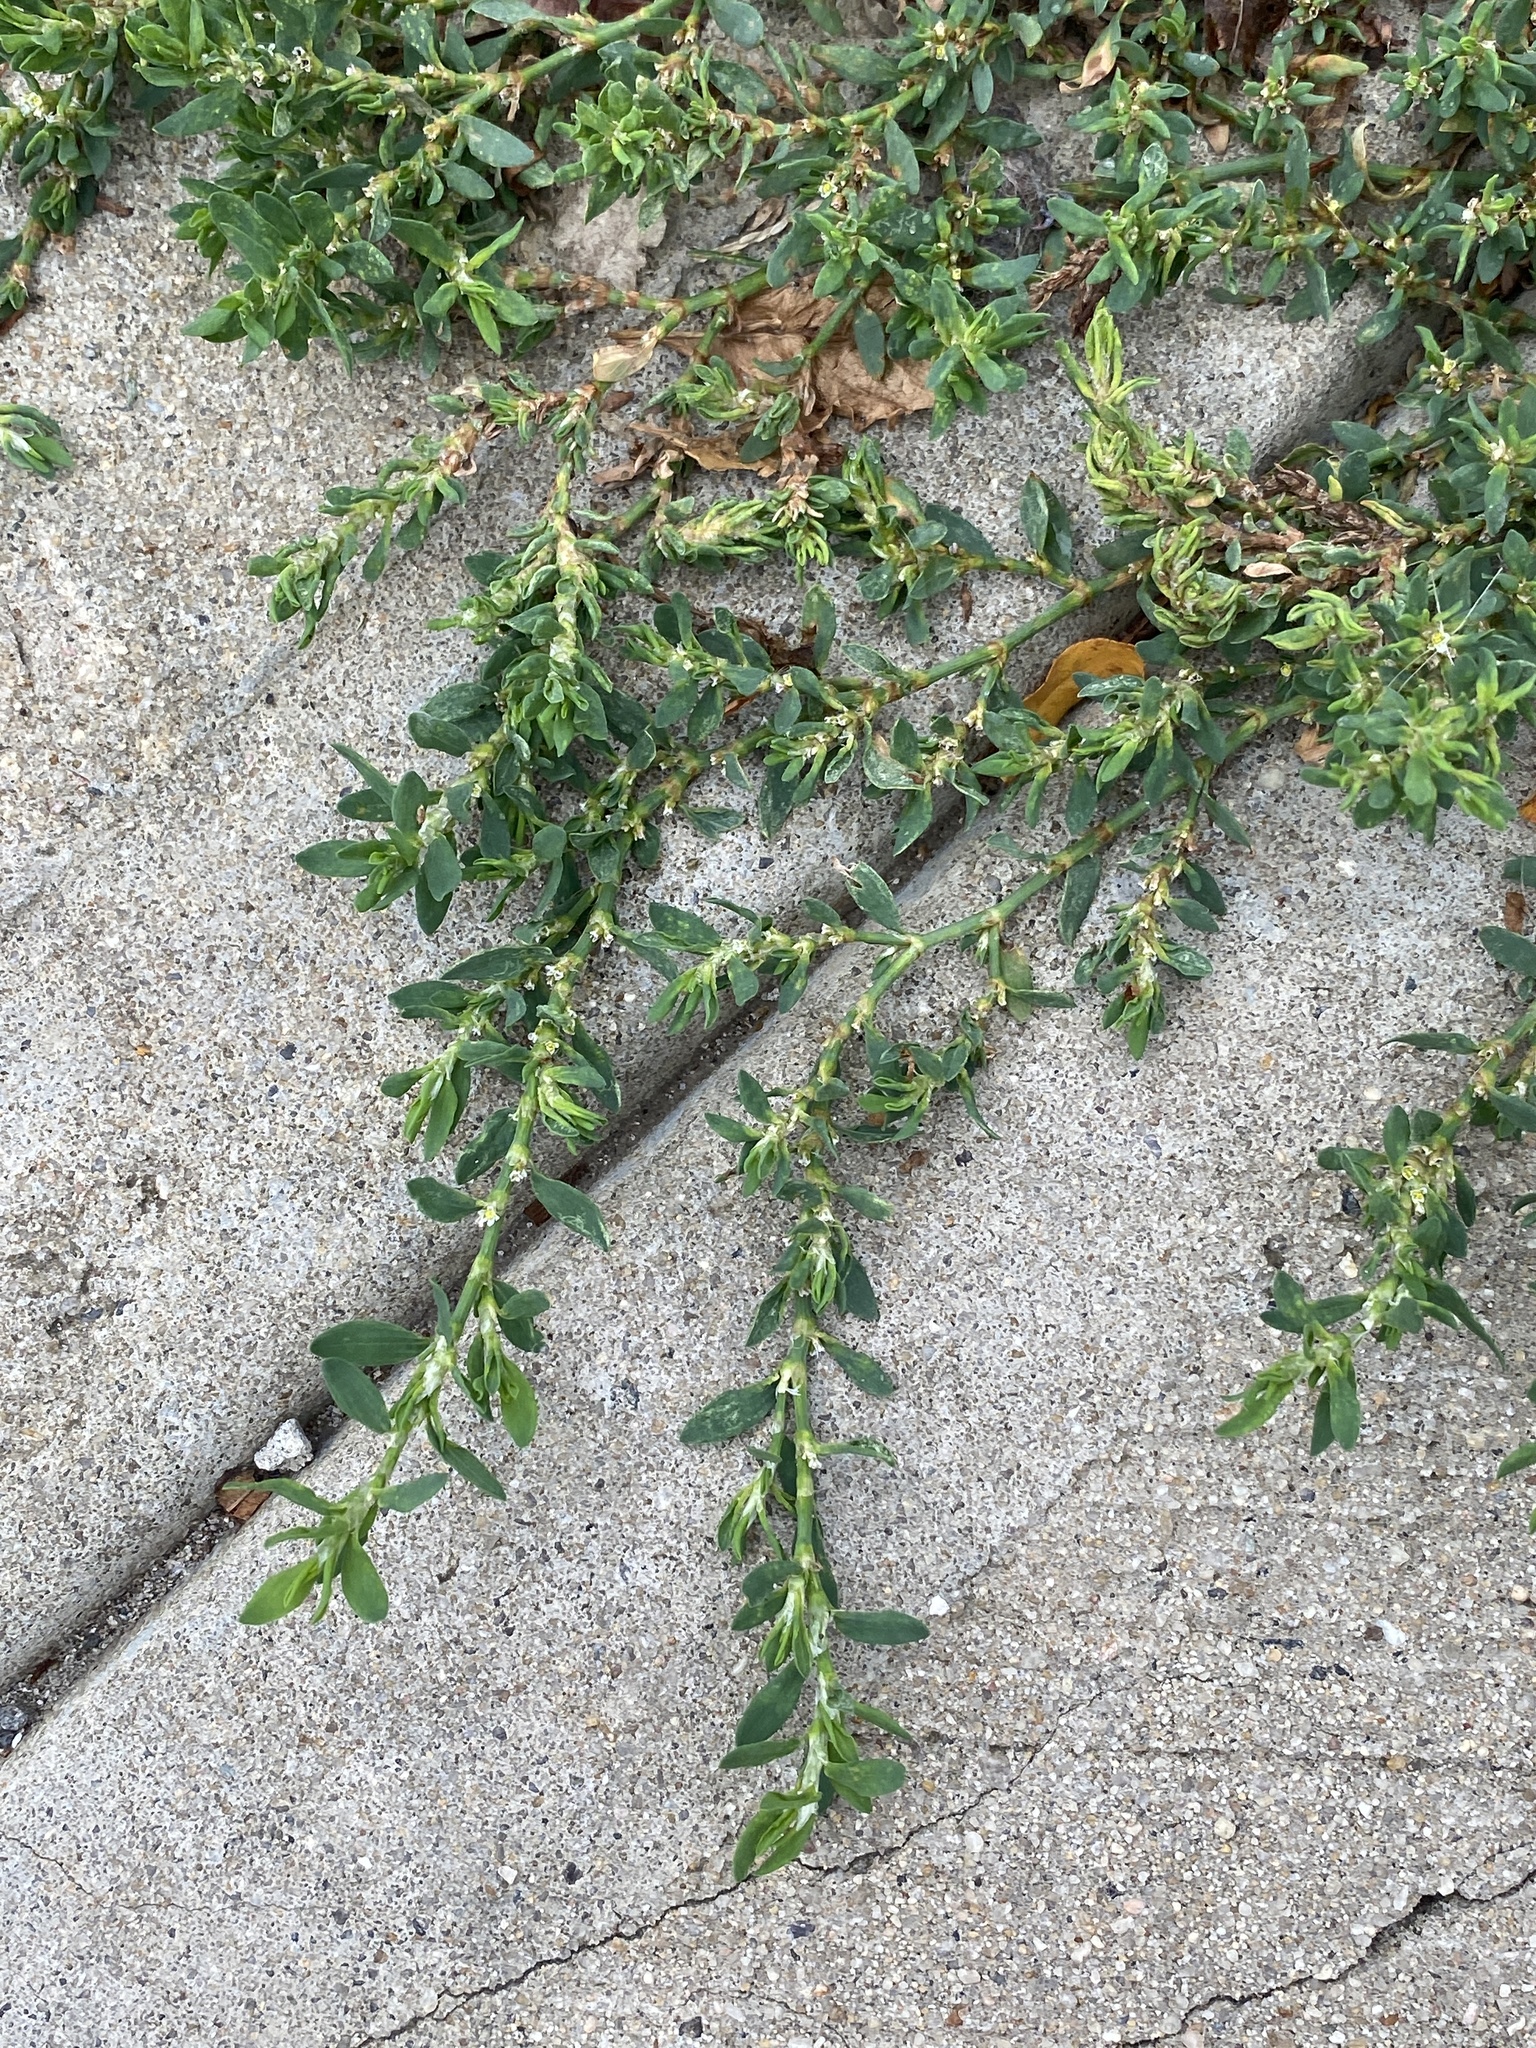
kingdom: Plantae
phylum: Tracheophyta
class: Magnoliopsida
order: Caryophyllales
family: Polygonaceae
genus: Polygonum
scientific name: Polygonum aviculare
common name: Prostrate knotweed
